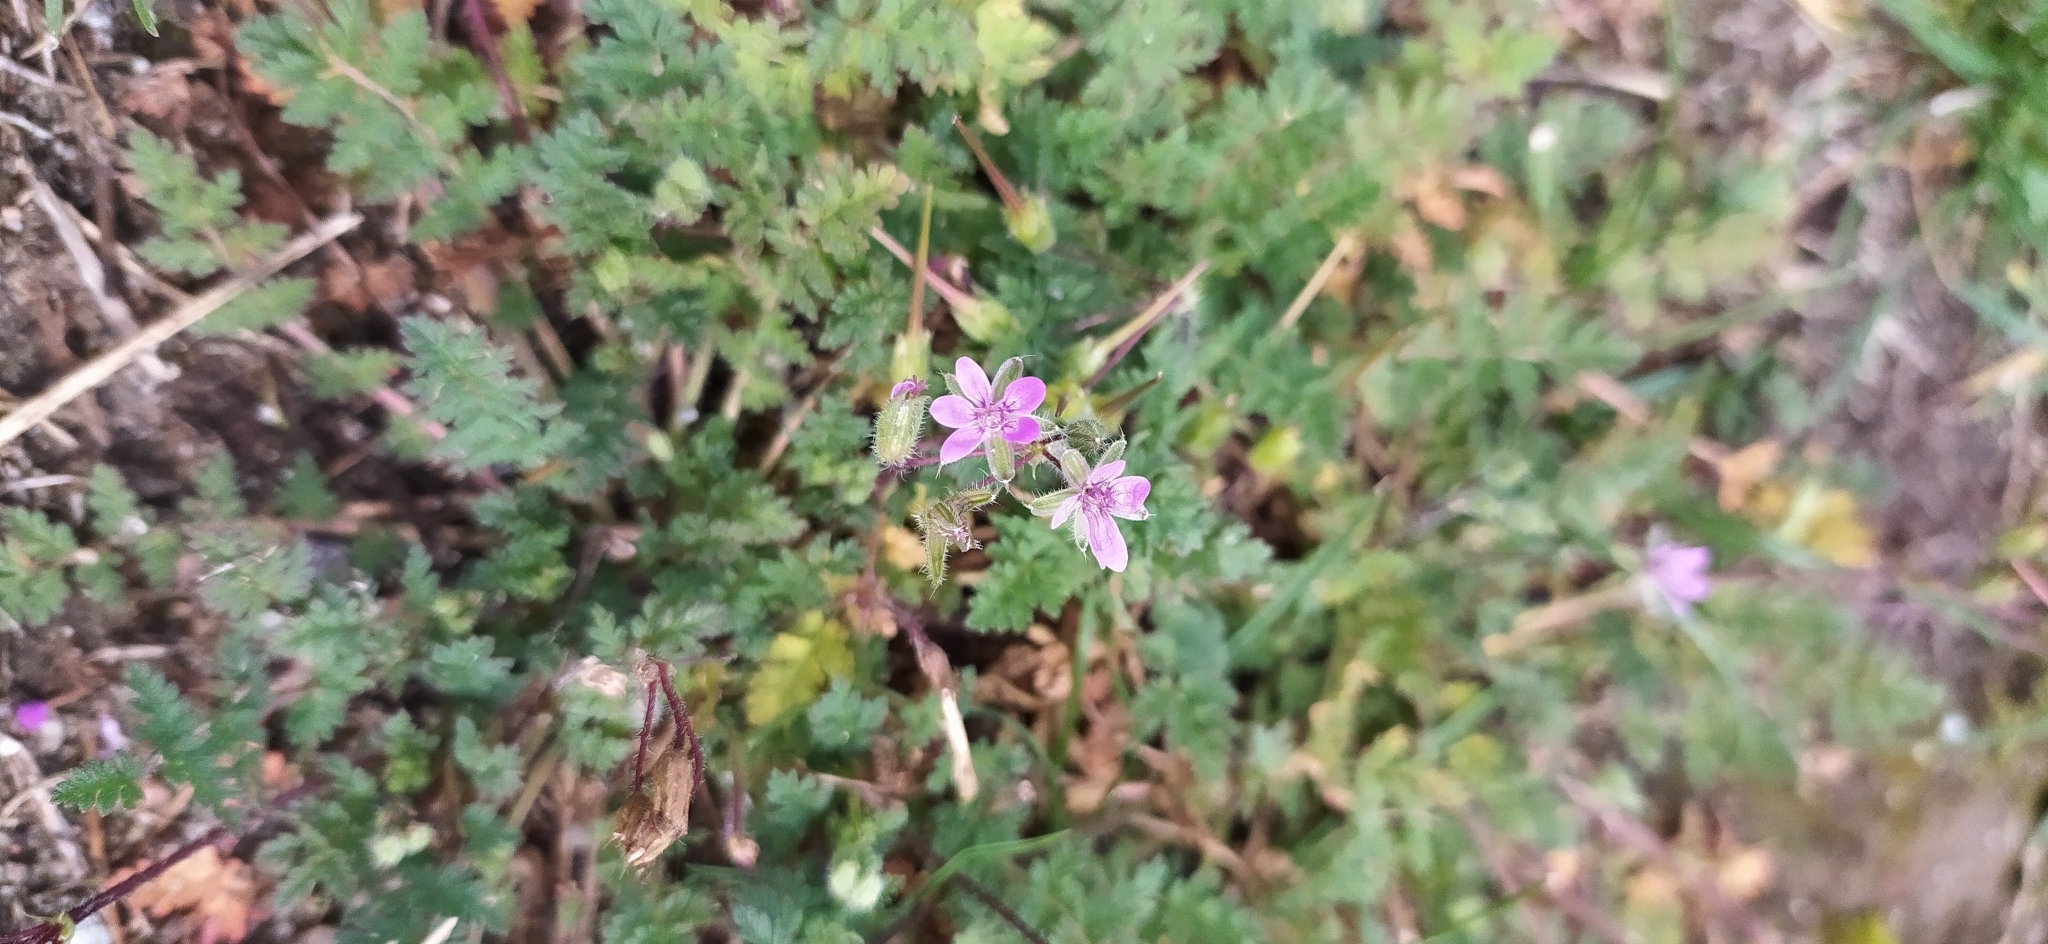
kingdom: Plantae
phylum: Tracheophyta
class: Magnoliopsida
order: Geraniales
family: Geraniaceae
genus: Erodium
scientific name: Erodium cicutarium
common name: Common stork's-bill
